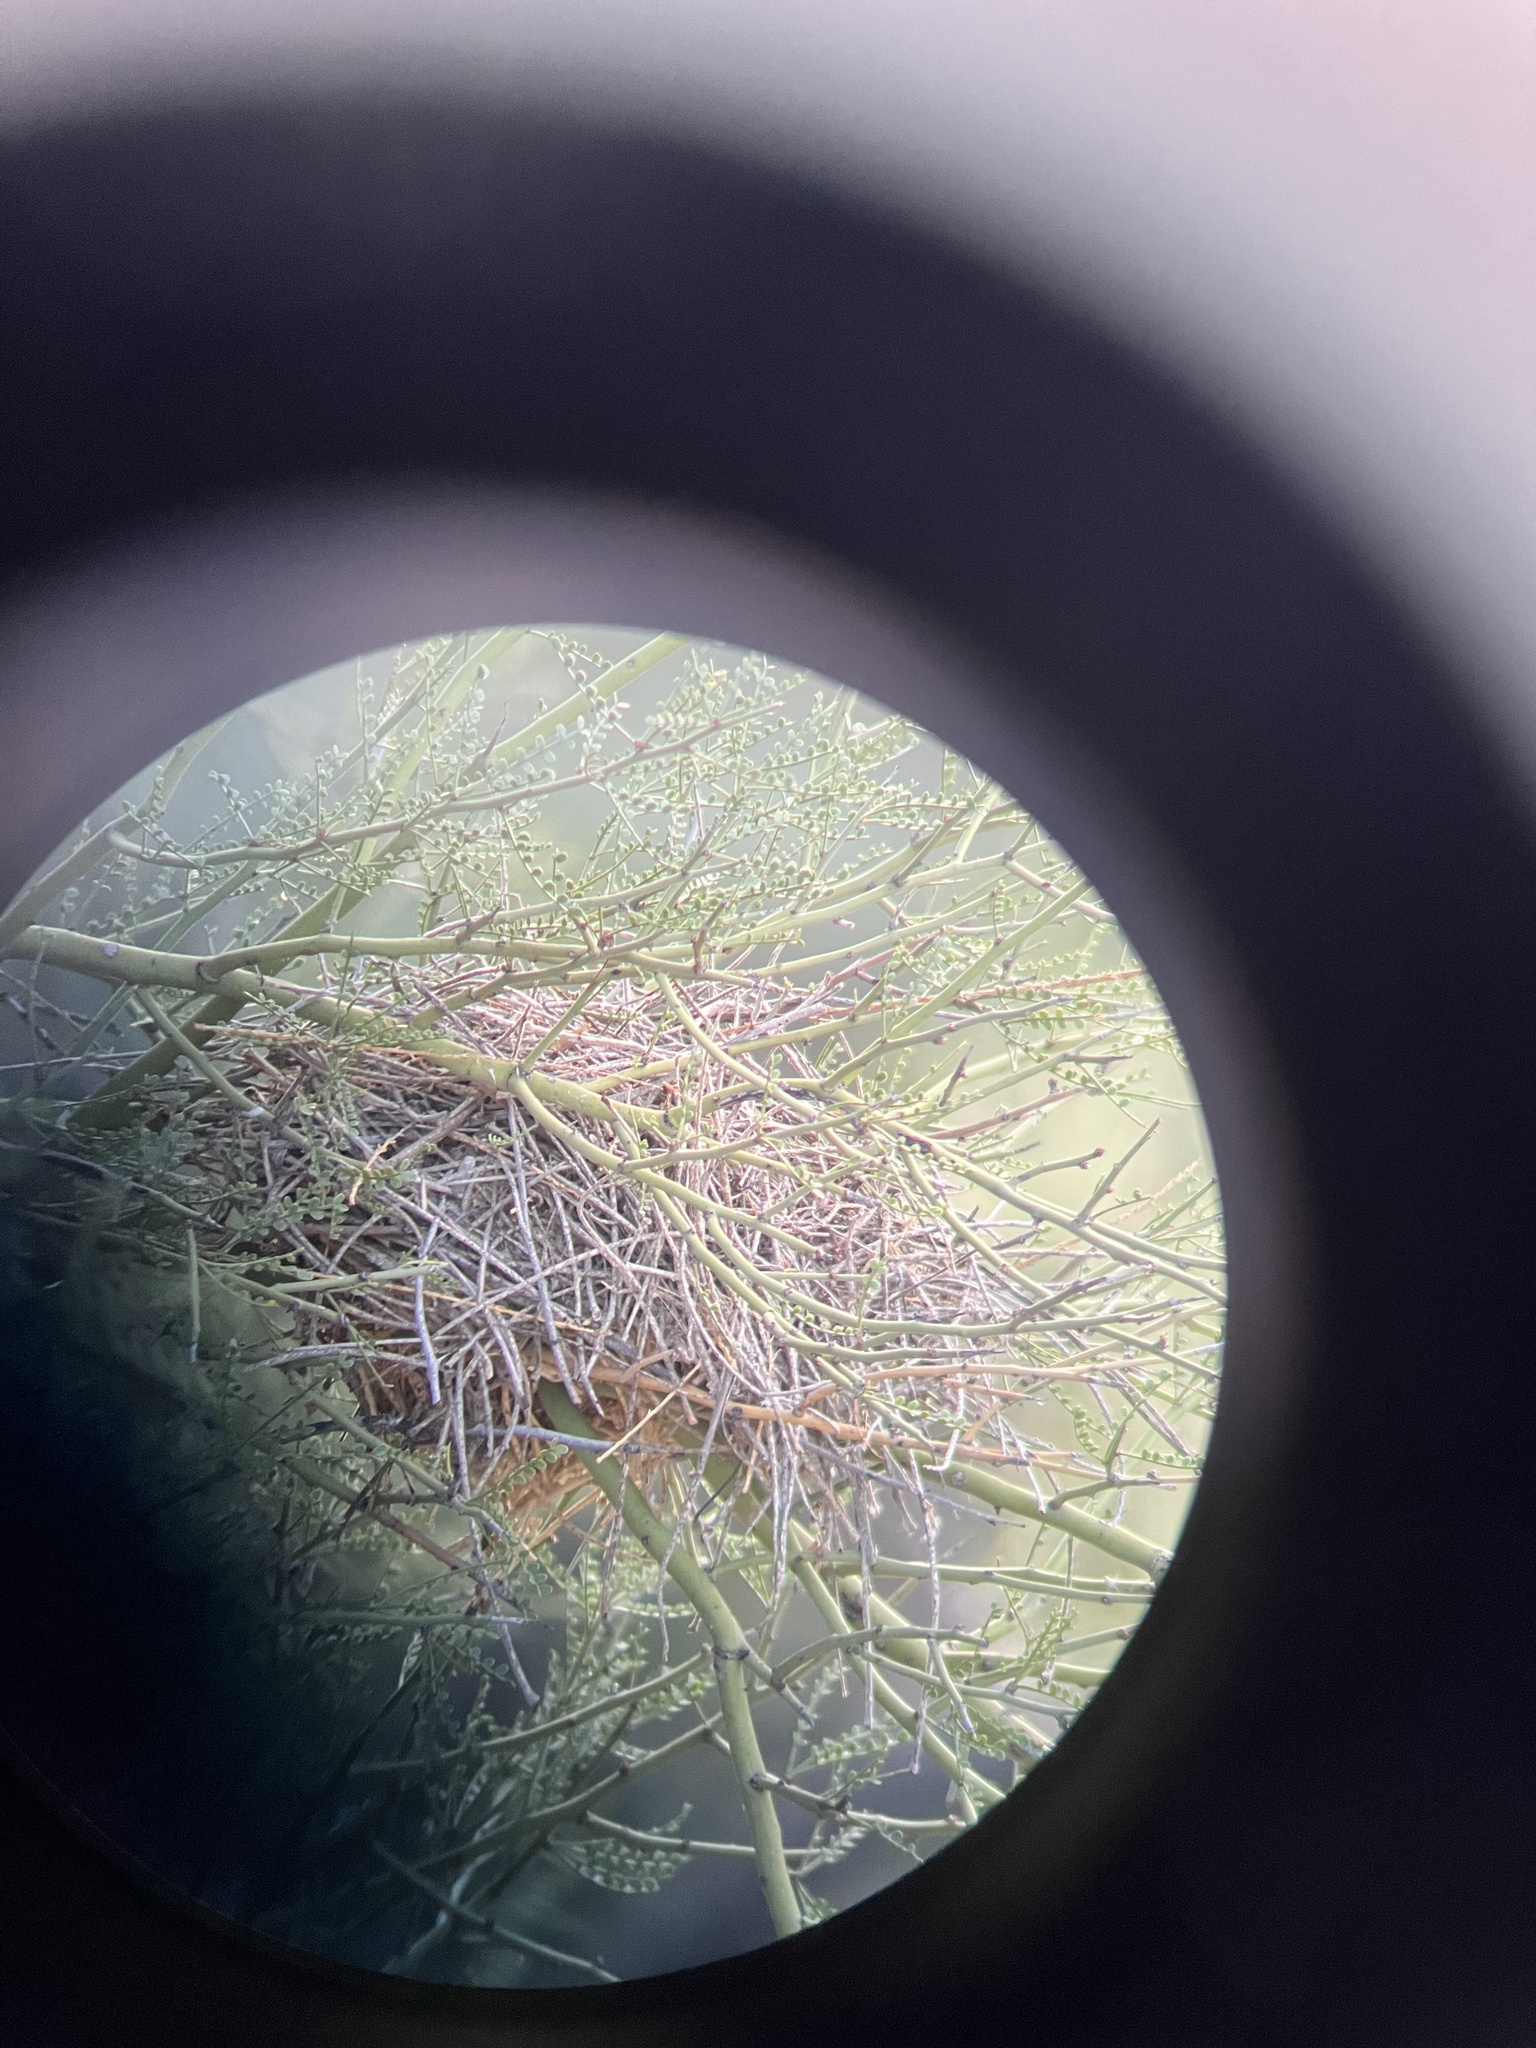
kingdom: Animalia
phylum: Chordata
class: Aves
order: Passeriformes
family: Remizidae
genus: Auriparus
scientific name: Auriparus flaviceps
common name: Verdin
